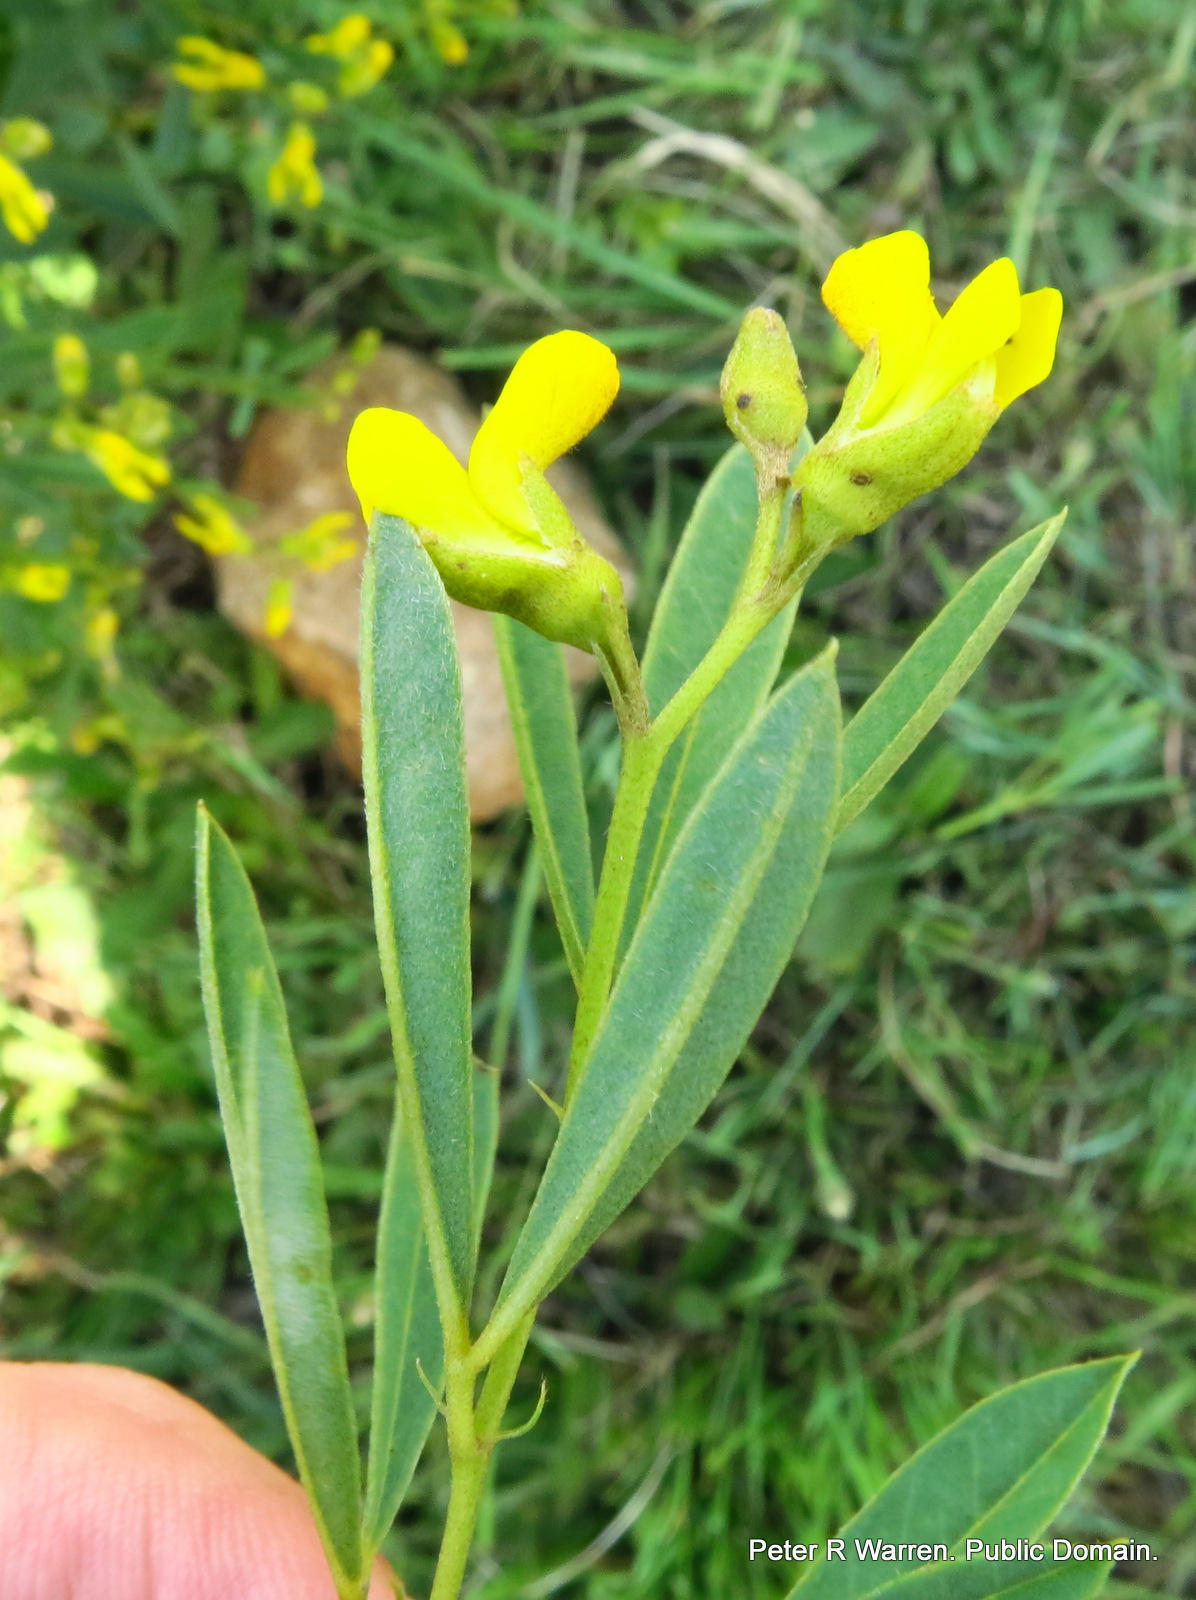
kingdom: Plantae
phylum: Tracheophyta
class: Magnoliopsida
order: Fabales
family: Fabaceae
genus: Argyrolobium
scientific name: Argyrolobium baptisioides
